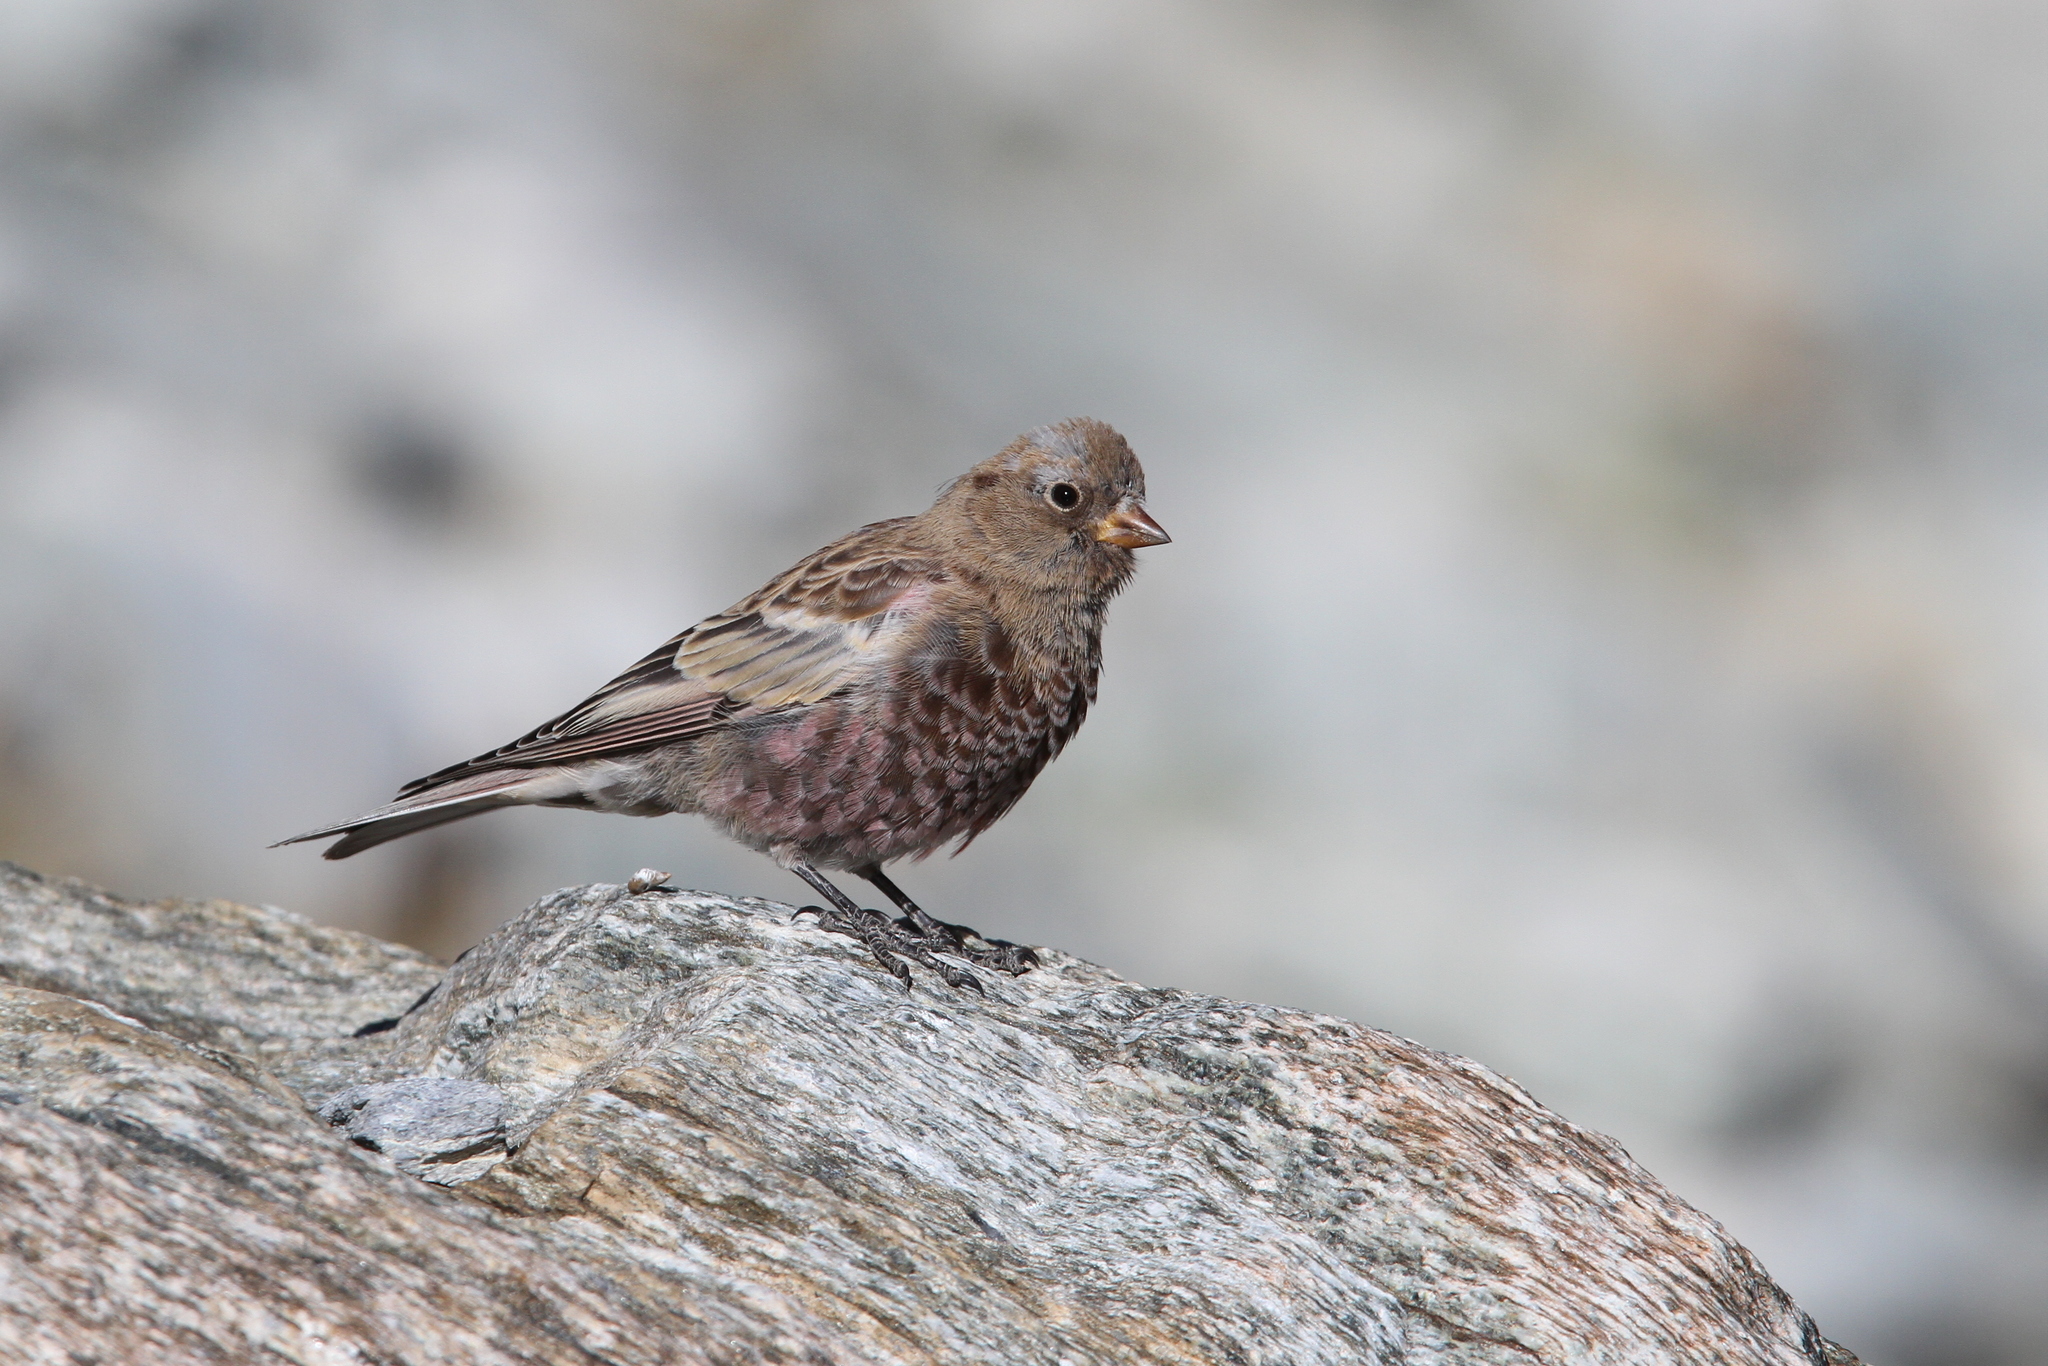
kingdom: Animalia
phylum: Chordata
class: Aves
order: Passeriformes
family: Fringillidae
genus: Leucosticte
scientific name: Leucosticte tephrocotis
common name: Gray-crowned rosy-finch
